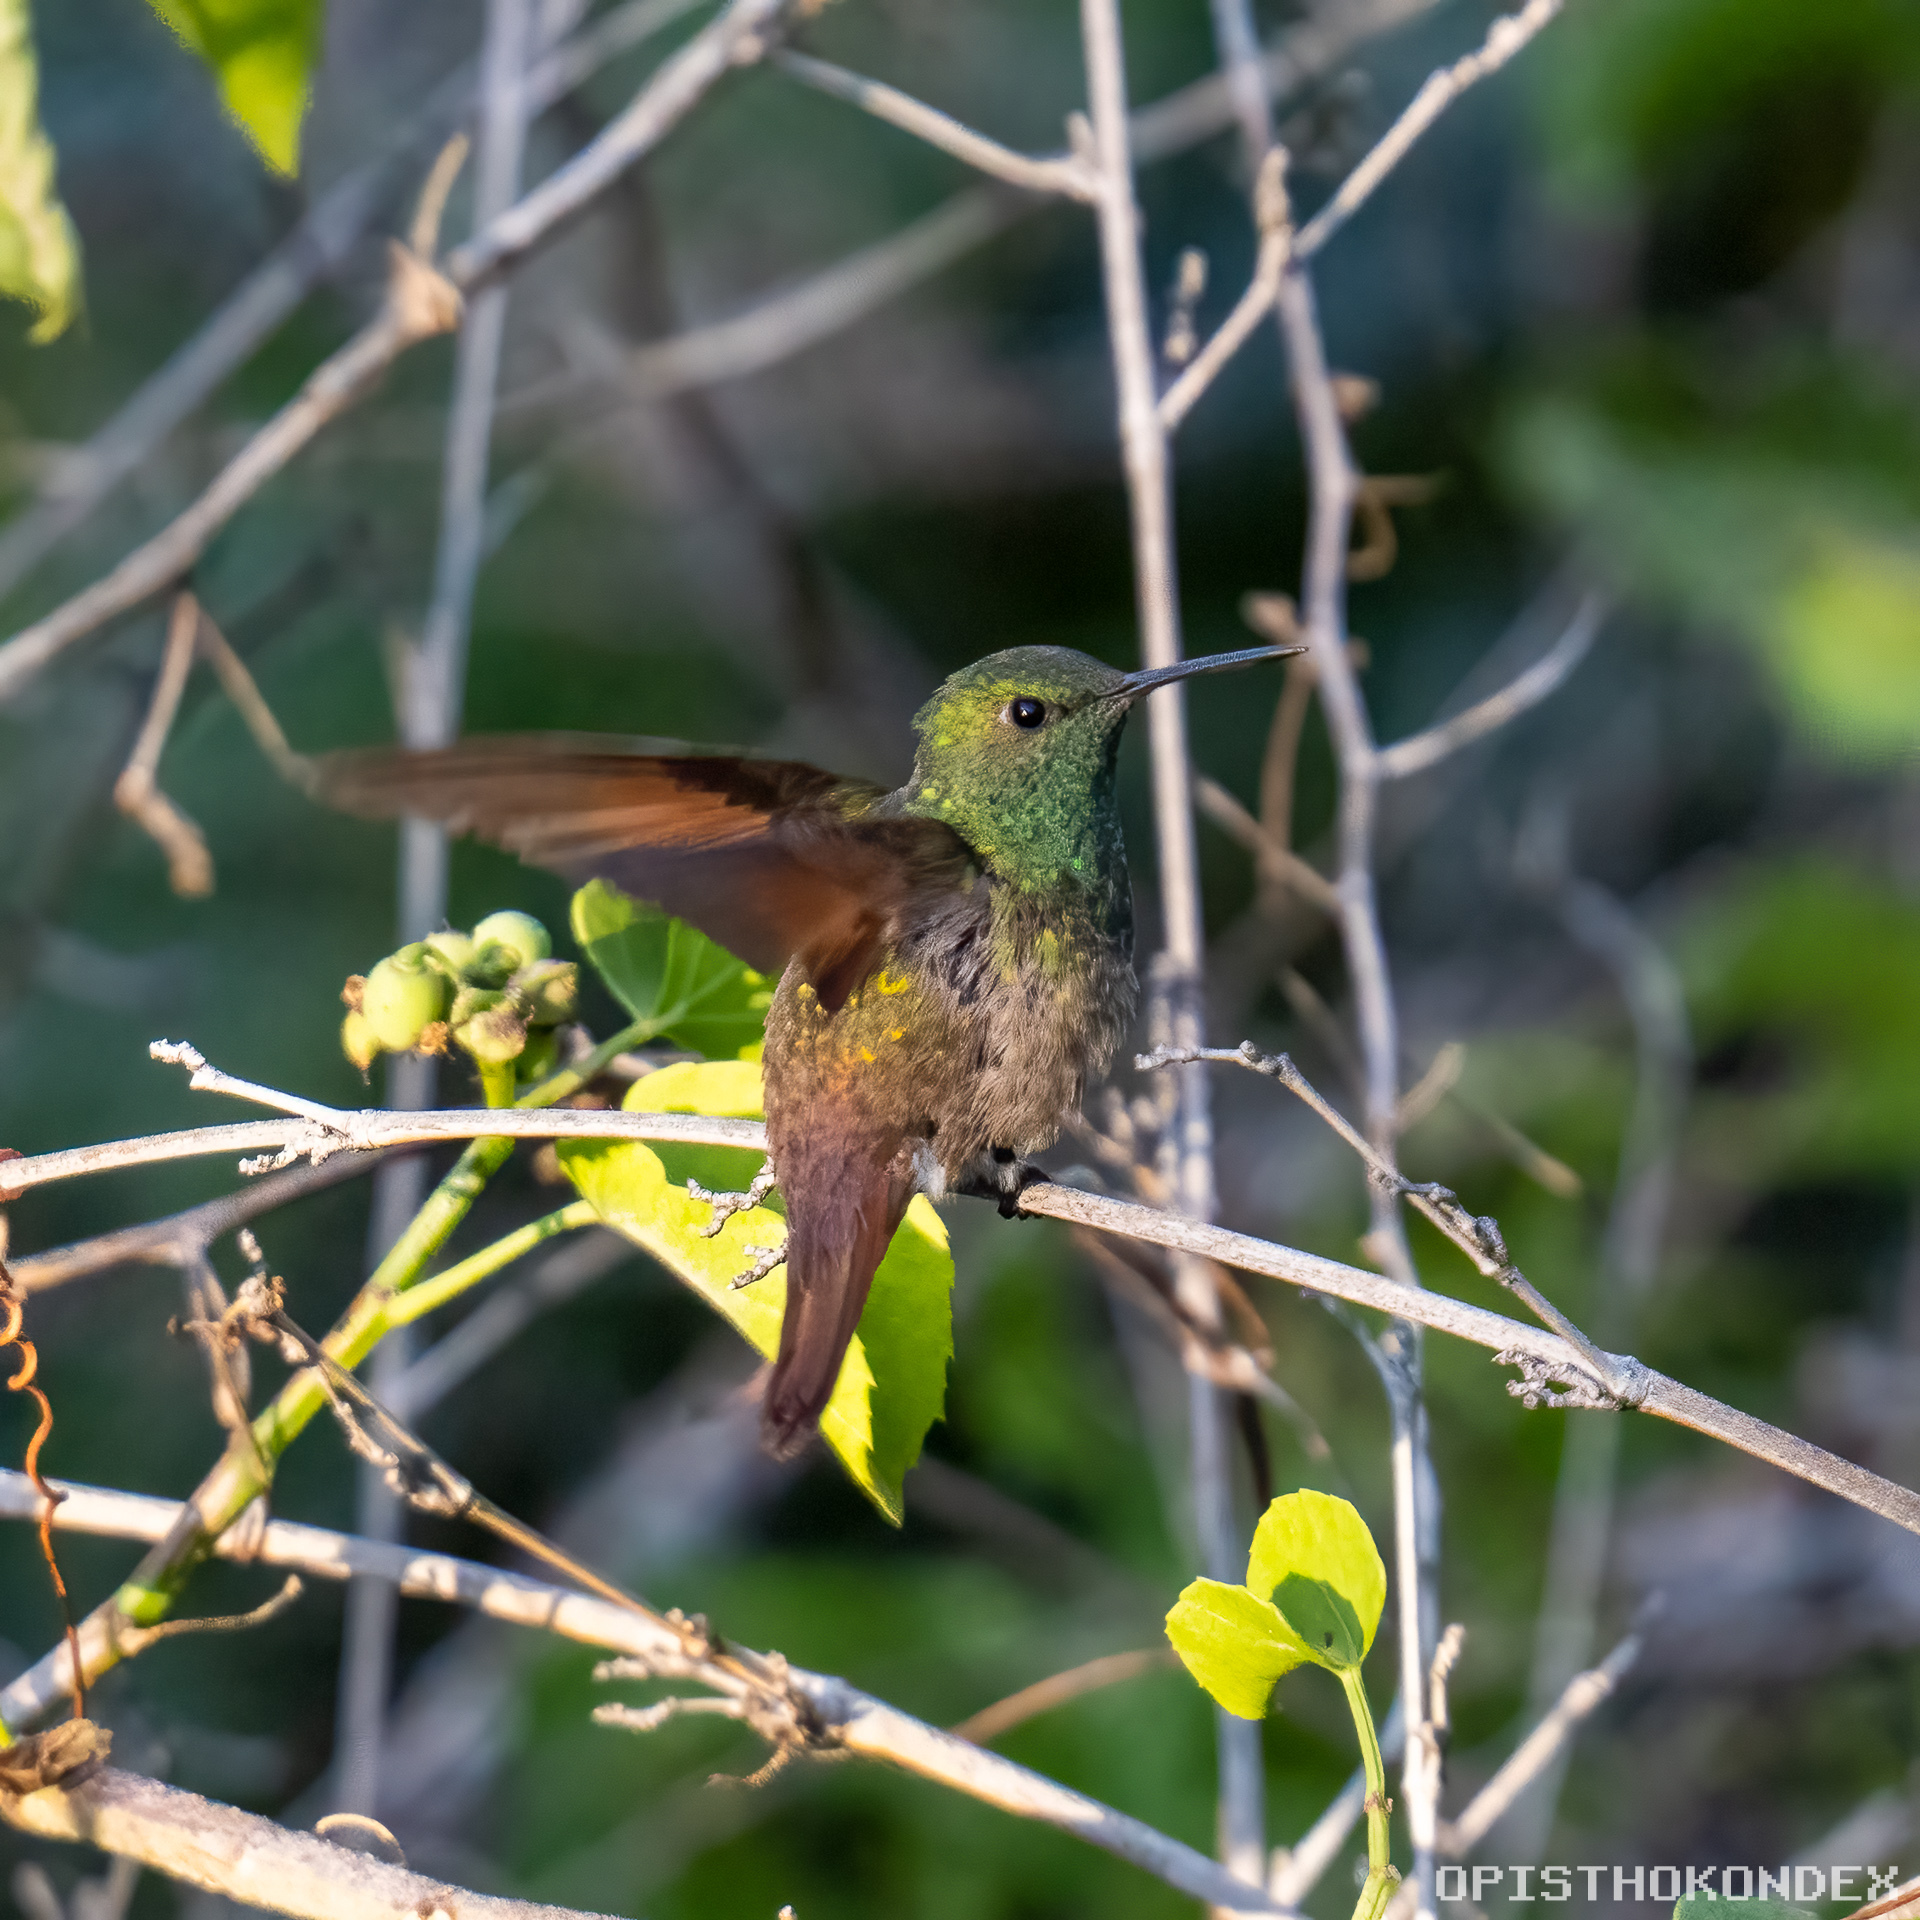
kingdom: Animalia
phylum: Chordata
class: Aves
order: Apodiformes
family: Trochilidae
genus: Saucerottia
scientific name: Saucerottia beryllina
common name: Berylline hummingbird
